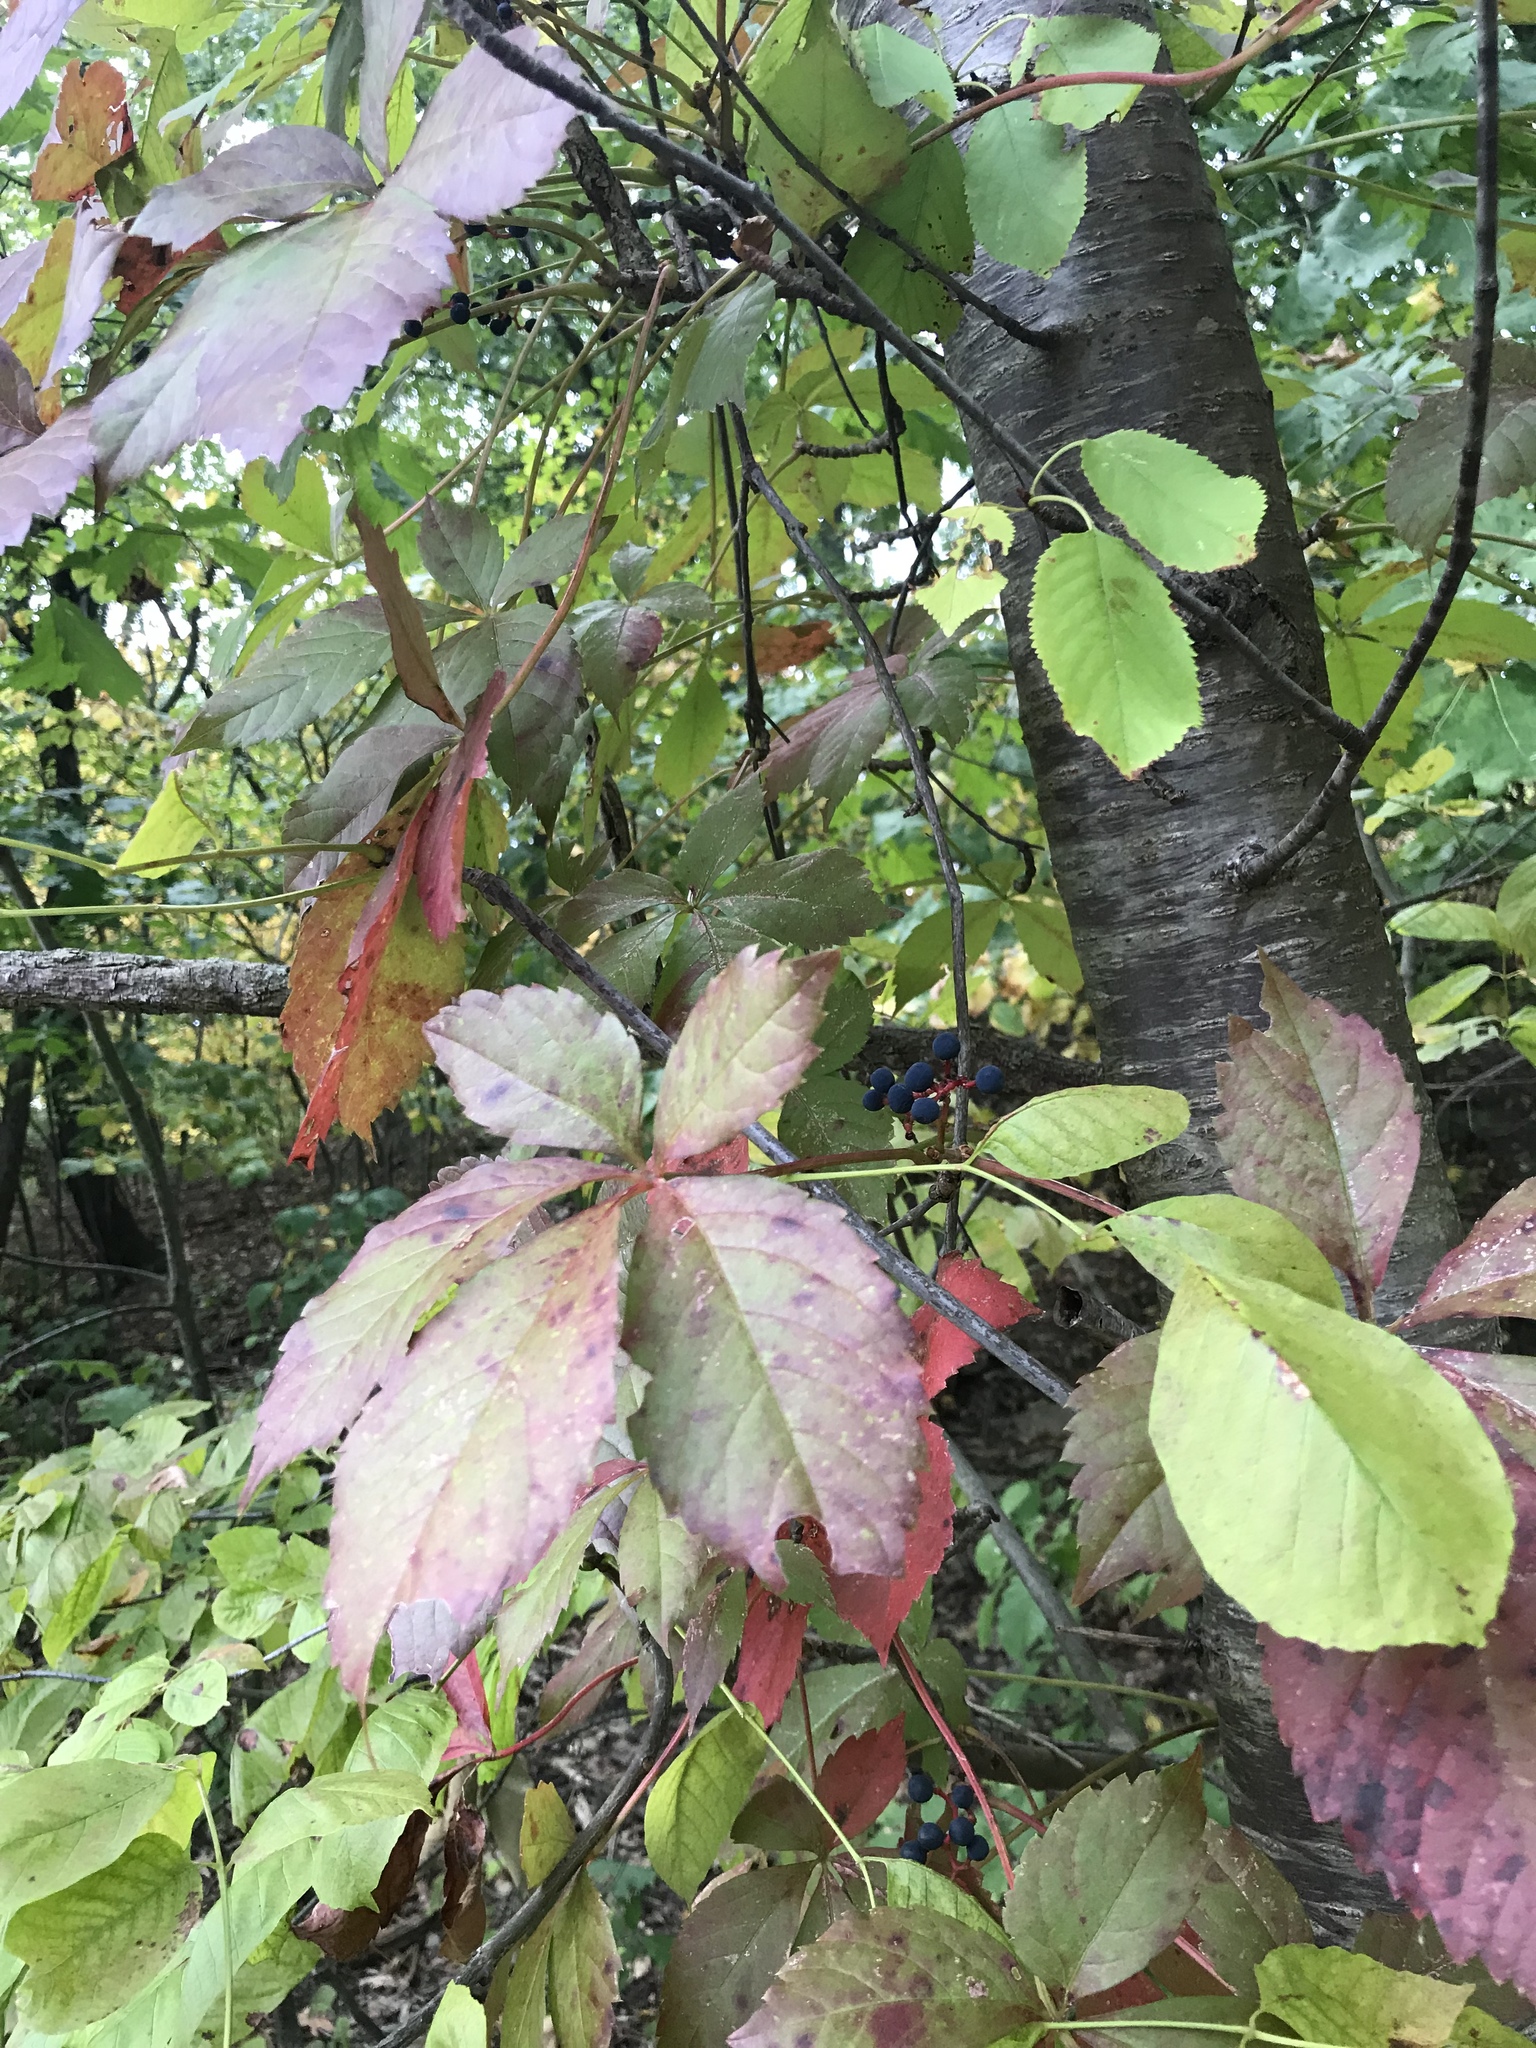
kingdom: Plantae
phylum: Tracheophyta
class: Magnoliopsida
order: Vitales
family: Vitaceae
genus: Parthenocissus
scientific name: Parthenocissus quinquefolia
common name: Virginia-creeper
